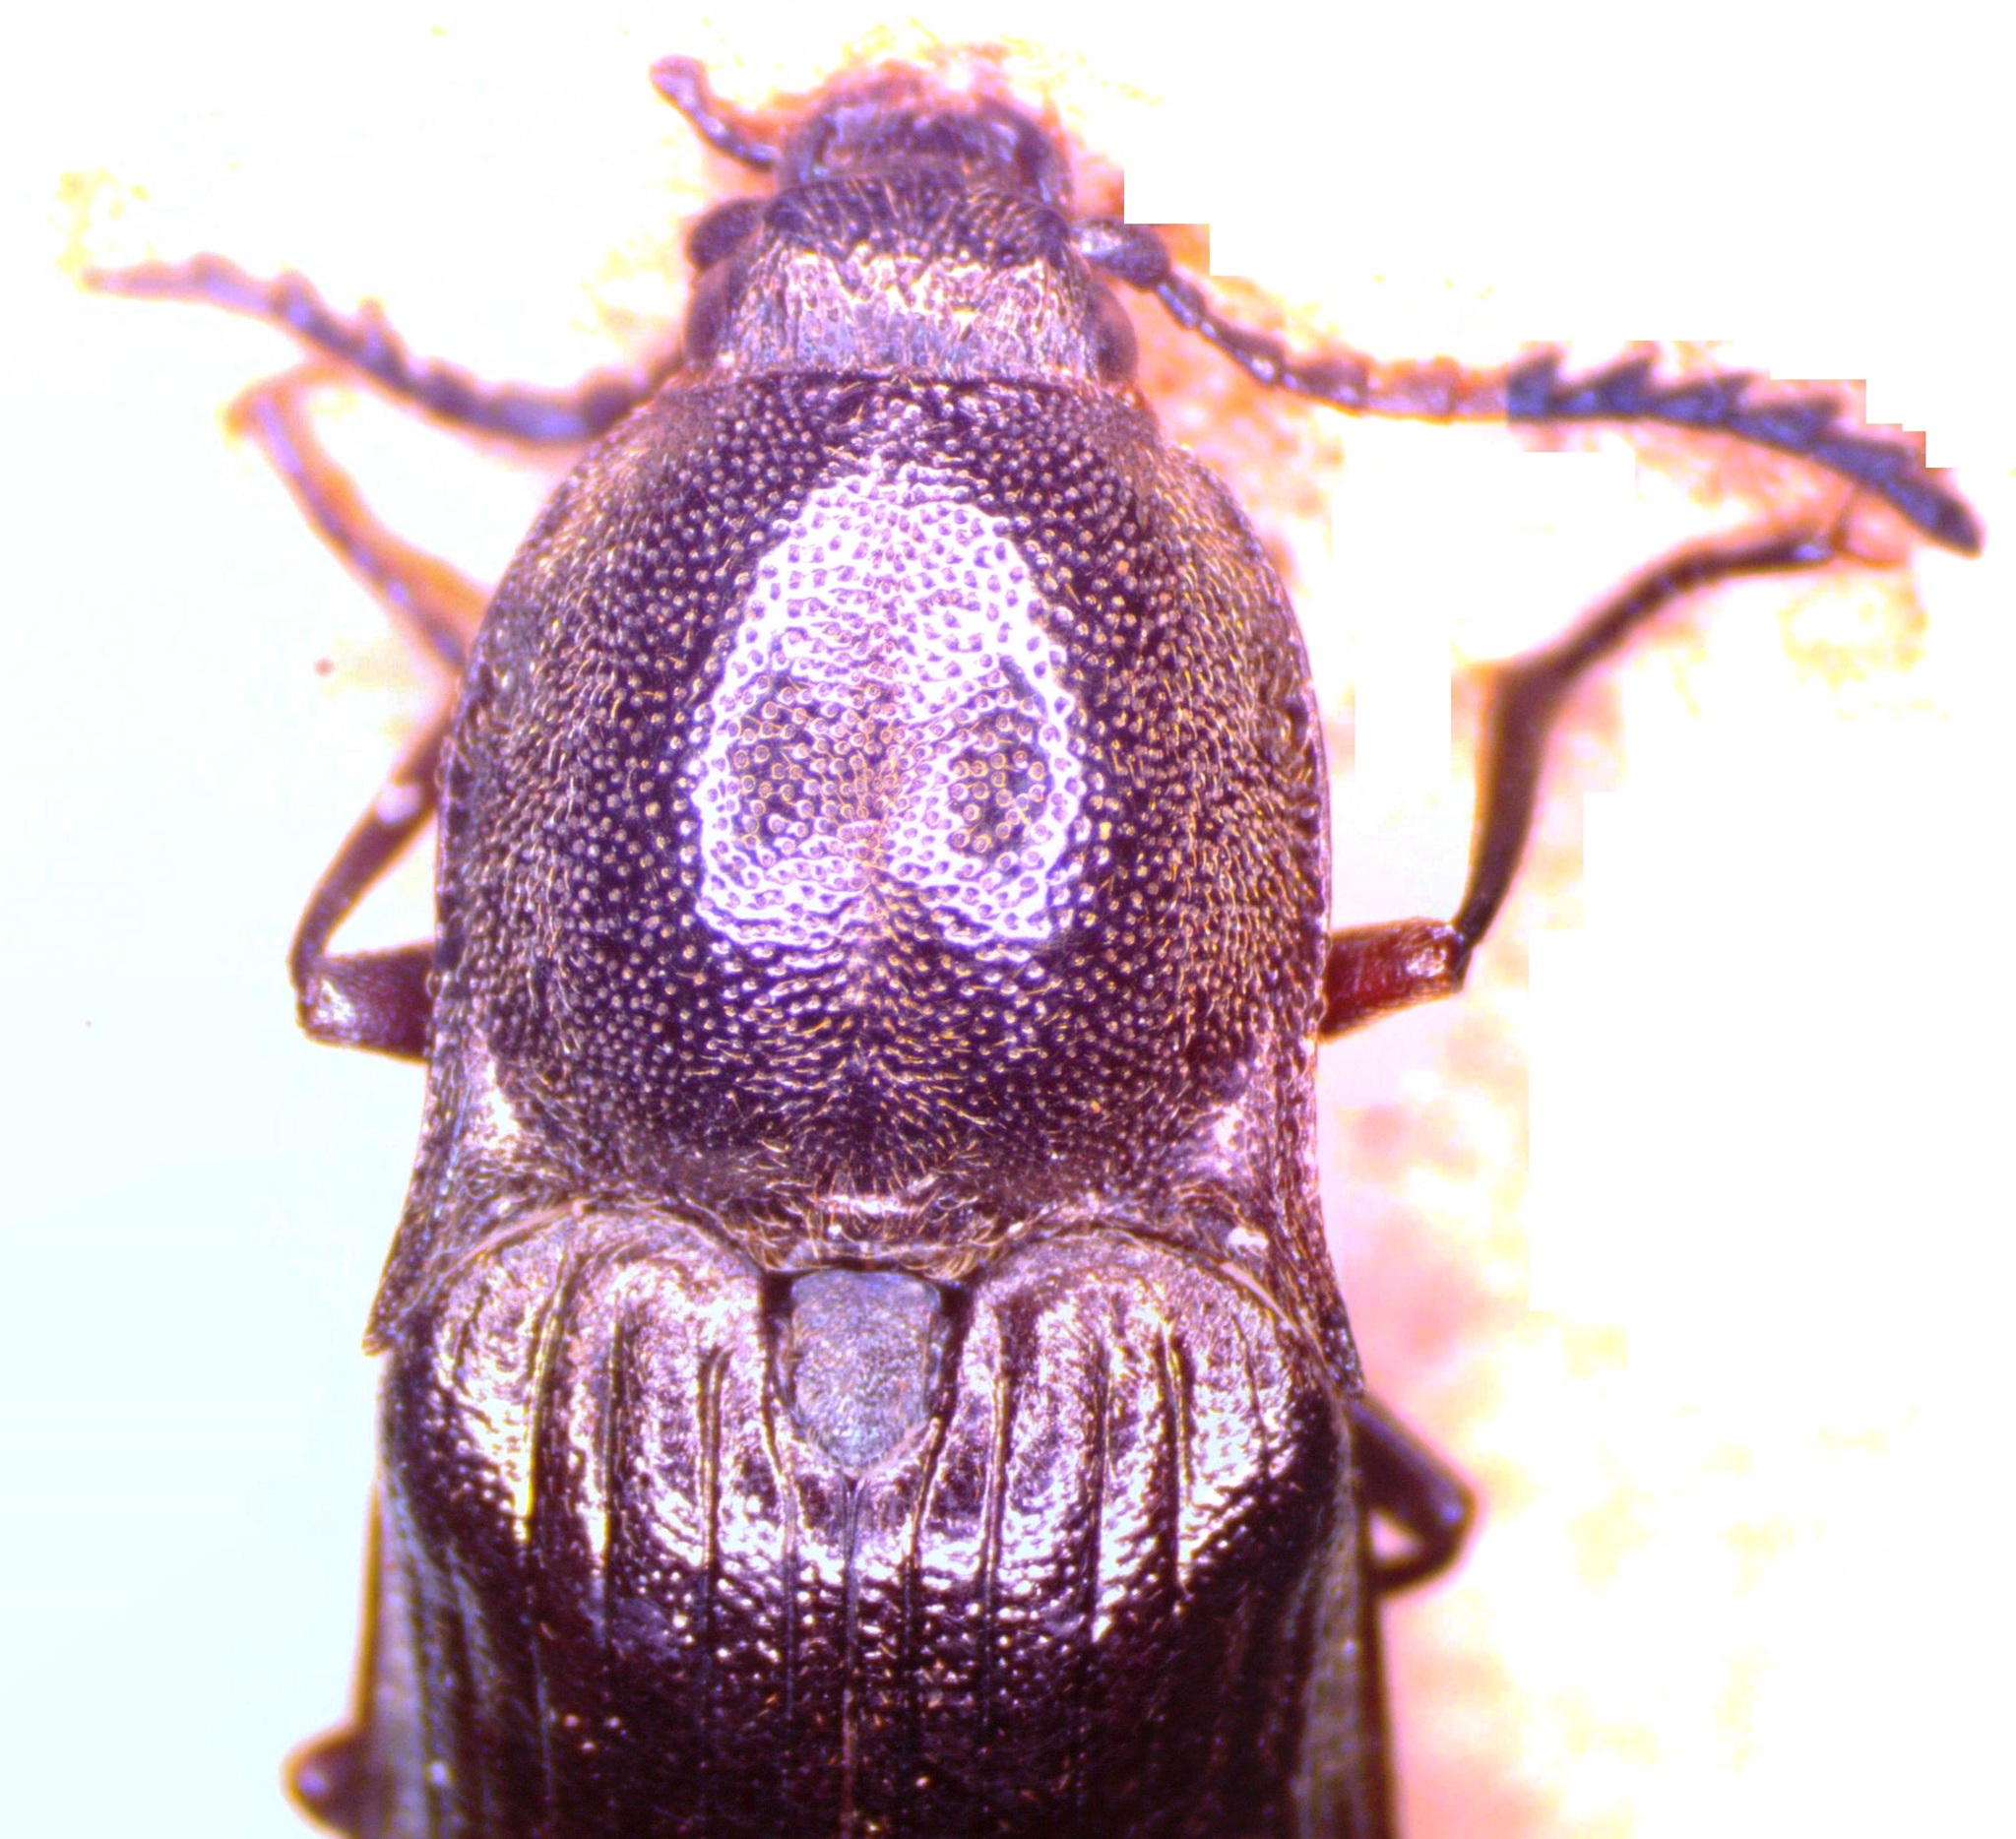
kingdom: Animalia
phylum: Arthropoda
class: Insecta
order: Coleoptera
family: Elateridae
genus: Ctenicera
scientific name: Ctenicera cuprea
